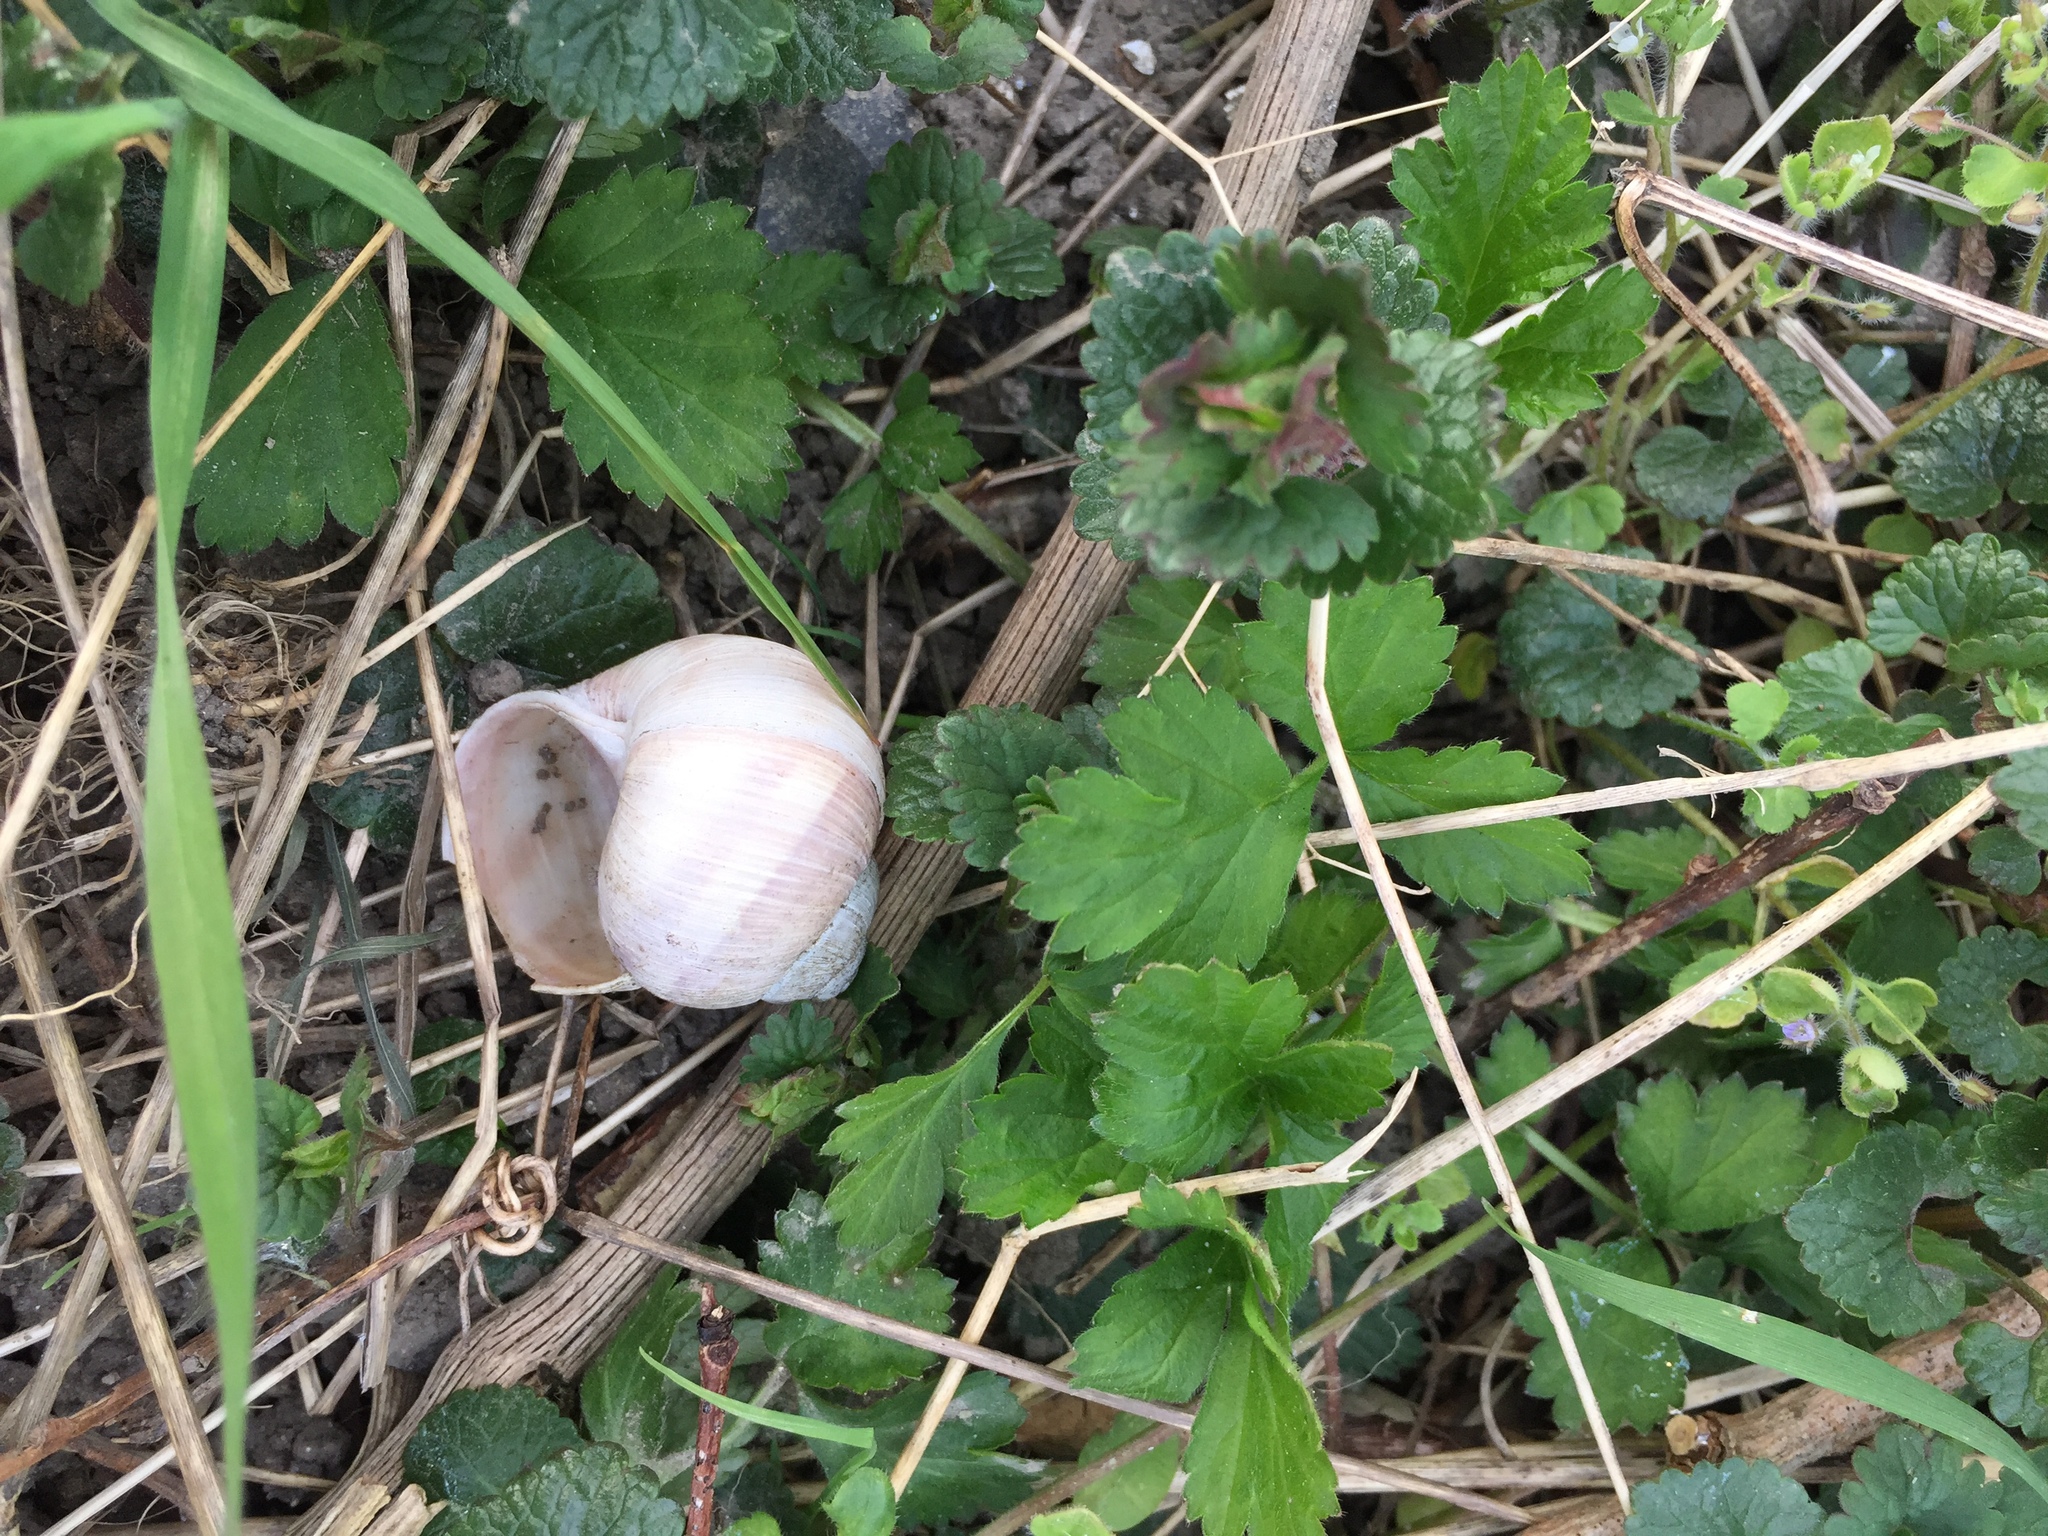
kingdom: Animalia
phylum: Mollusca
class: Gastropoda
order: Stylommatophora
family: Helicidae
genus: Helix
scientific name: Helix pomatia
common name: Roman snail
